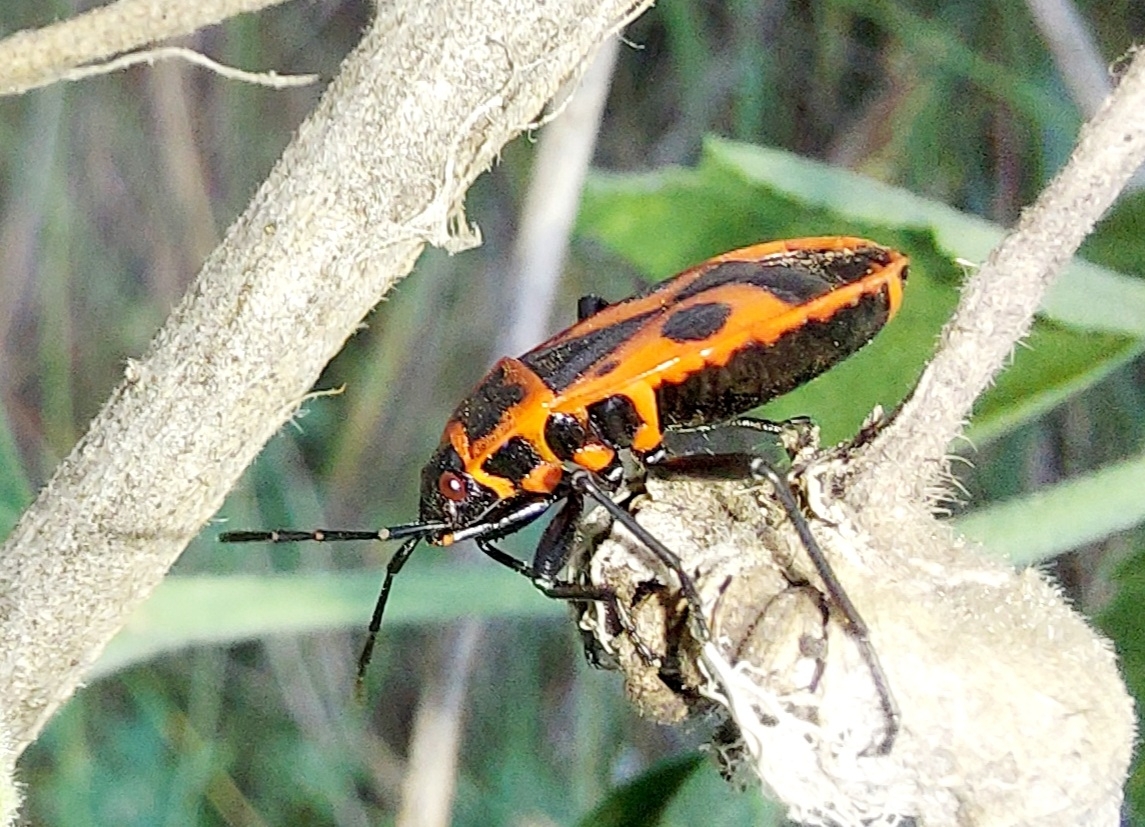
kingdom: Animalia
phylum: Arthropoda
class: Insecta
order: Hemiptera
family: Pyrrhocoridae
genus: Pyrrhocoris
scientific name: Pyrrhocoris apterus
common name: Firebug
